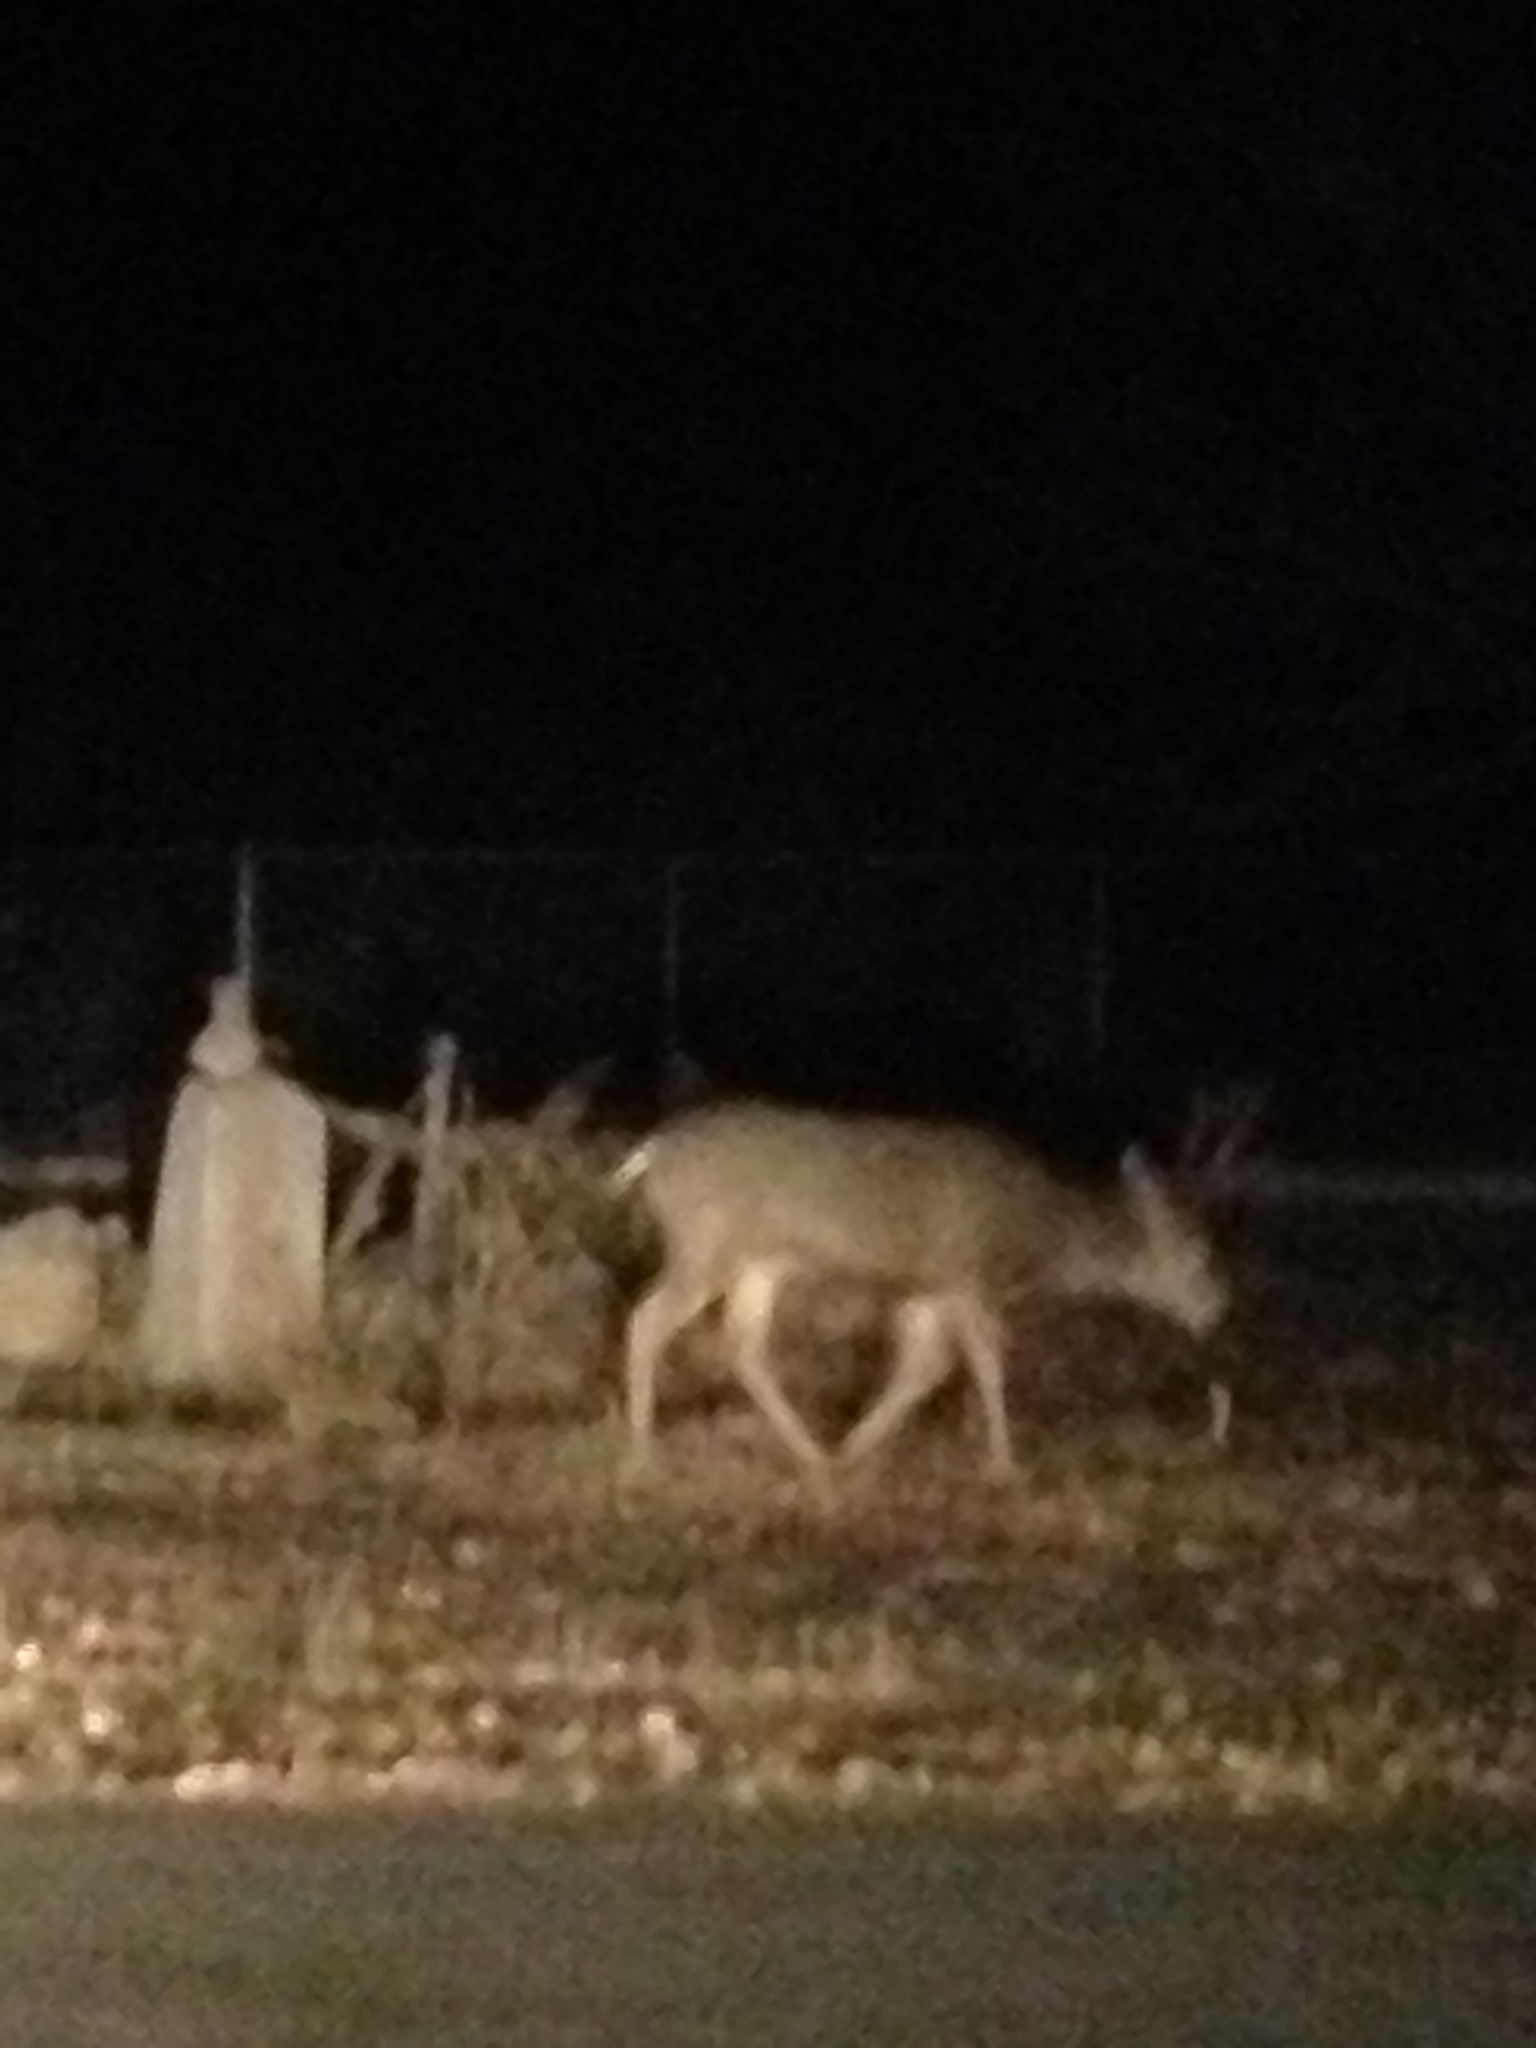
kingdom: Animalia
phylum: Chordata
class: Mammalia
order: Artiodactyla
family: Cervidae
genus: Odocoileus
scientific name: Odocoileus hemionus
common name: Mule deer
